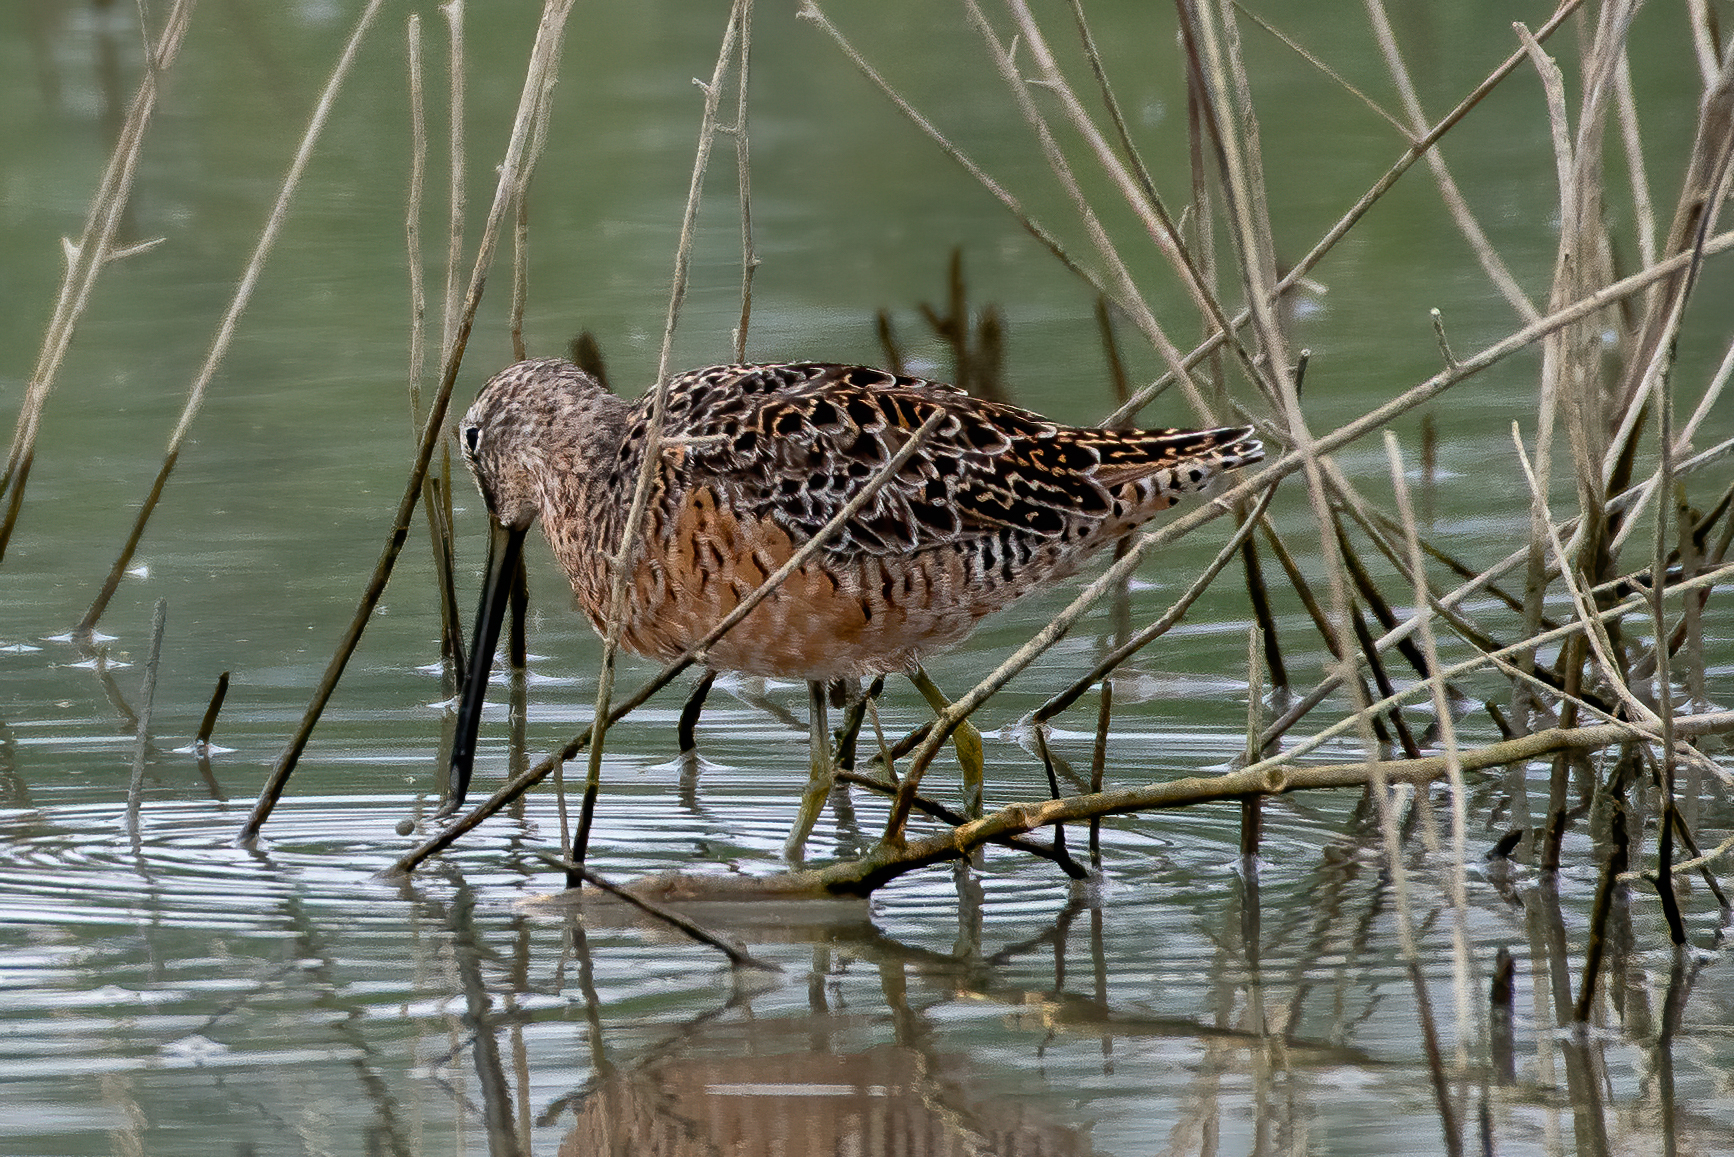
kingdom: Animalia
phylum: Chordata
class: Aves
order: Charadriiformes
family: Scolopacidae
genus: Limnodromus
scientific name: Limnodromus scolopaceus
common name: Long-billed dowitcher
